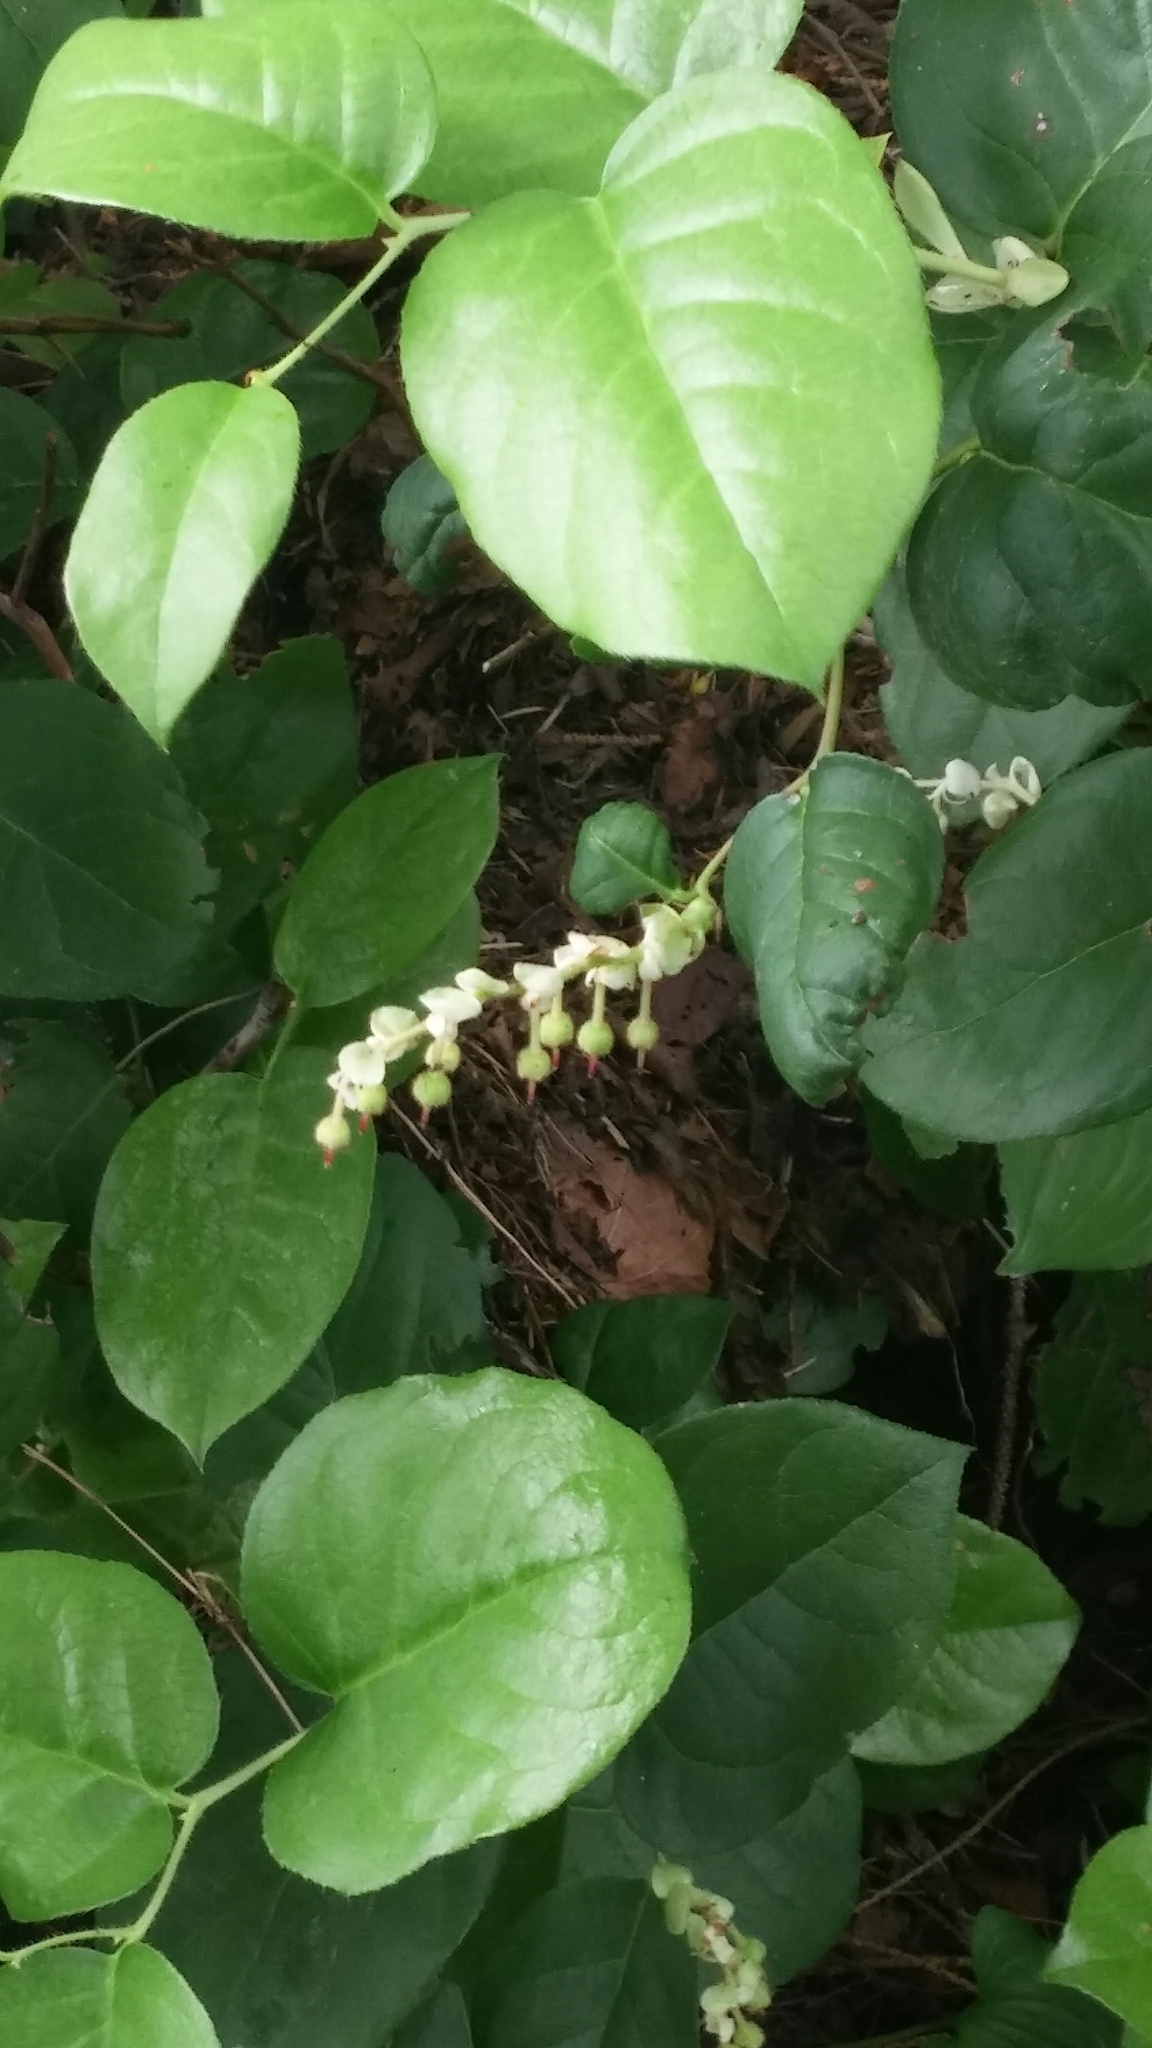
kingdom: Plantae
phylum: Tracheophyta
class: Magnoliopsida
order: Ericales
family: Ericaceae
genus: Gaultheria
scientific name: Gaultheria shallon
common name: Shallon
